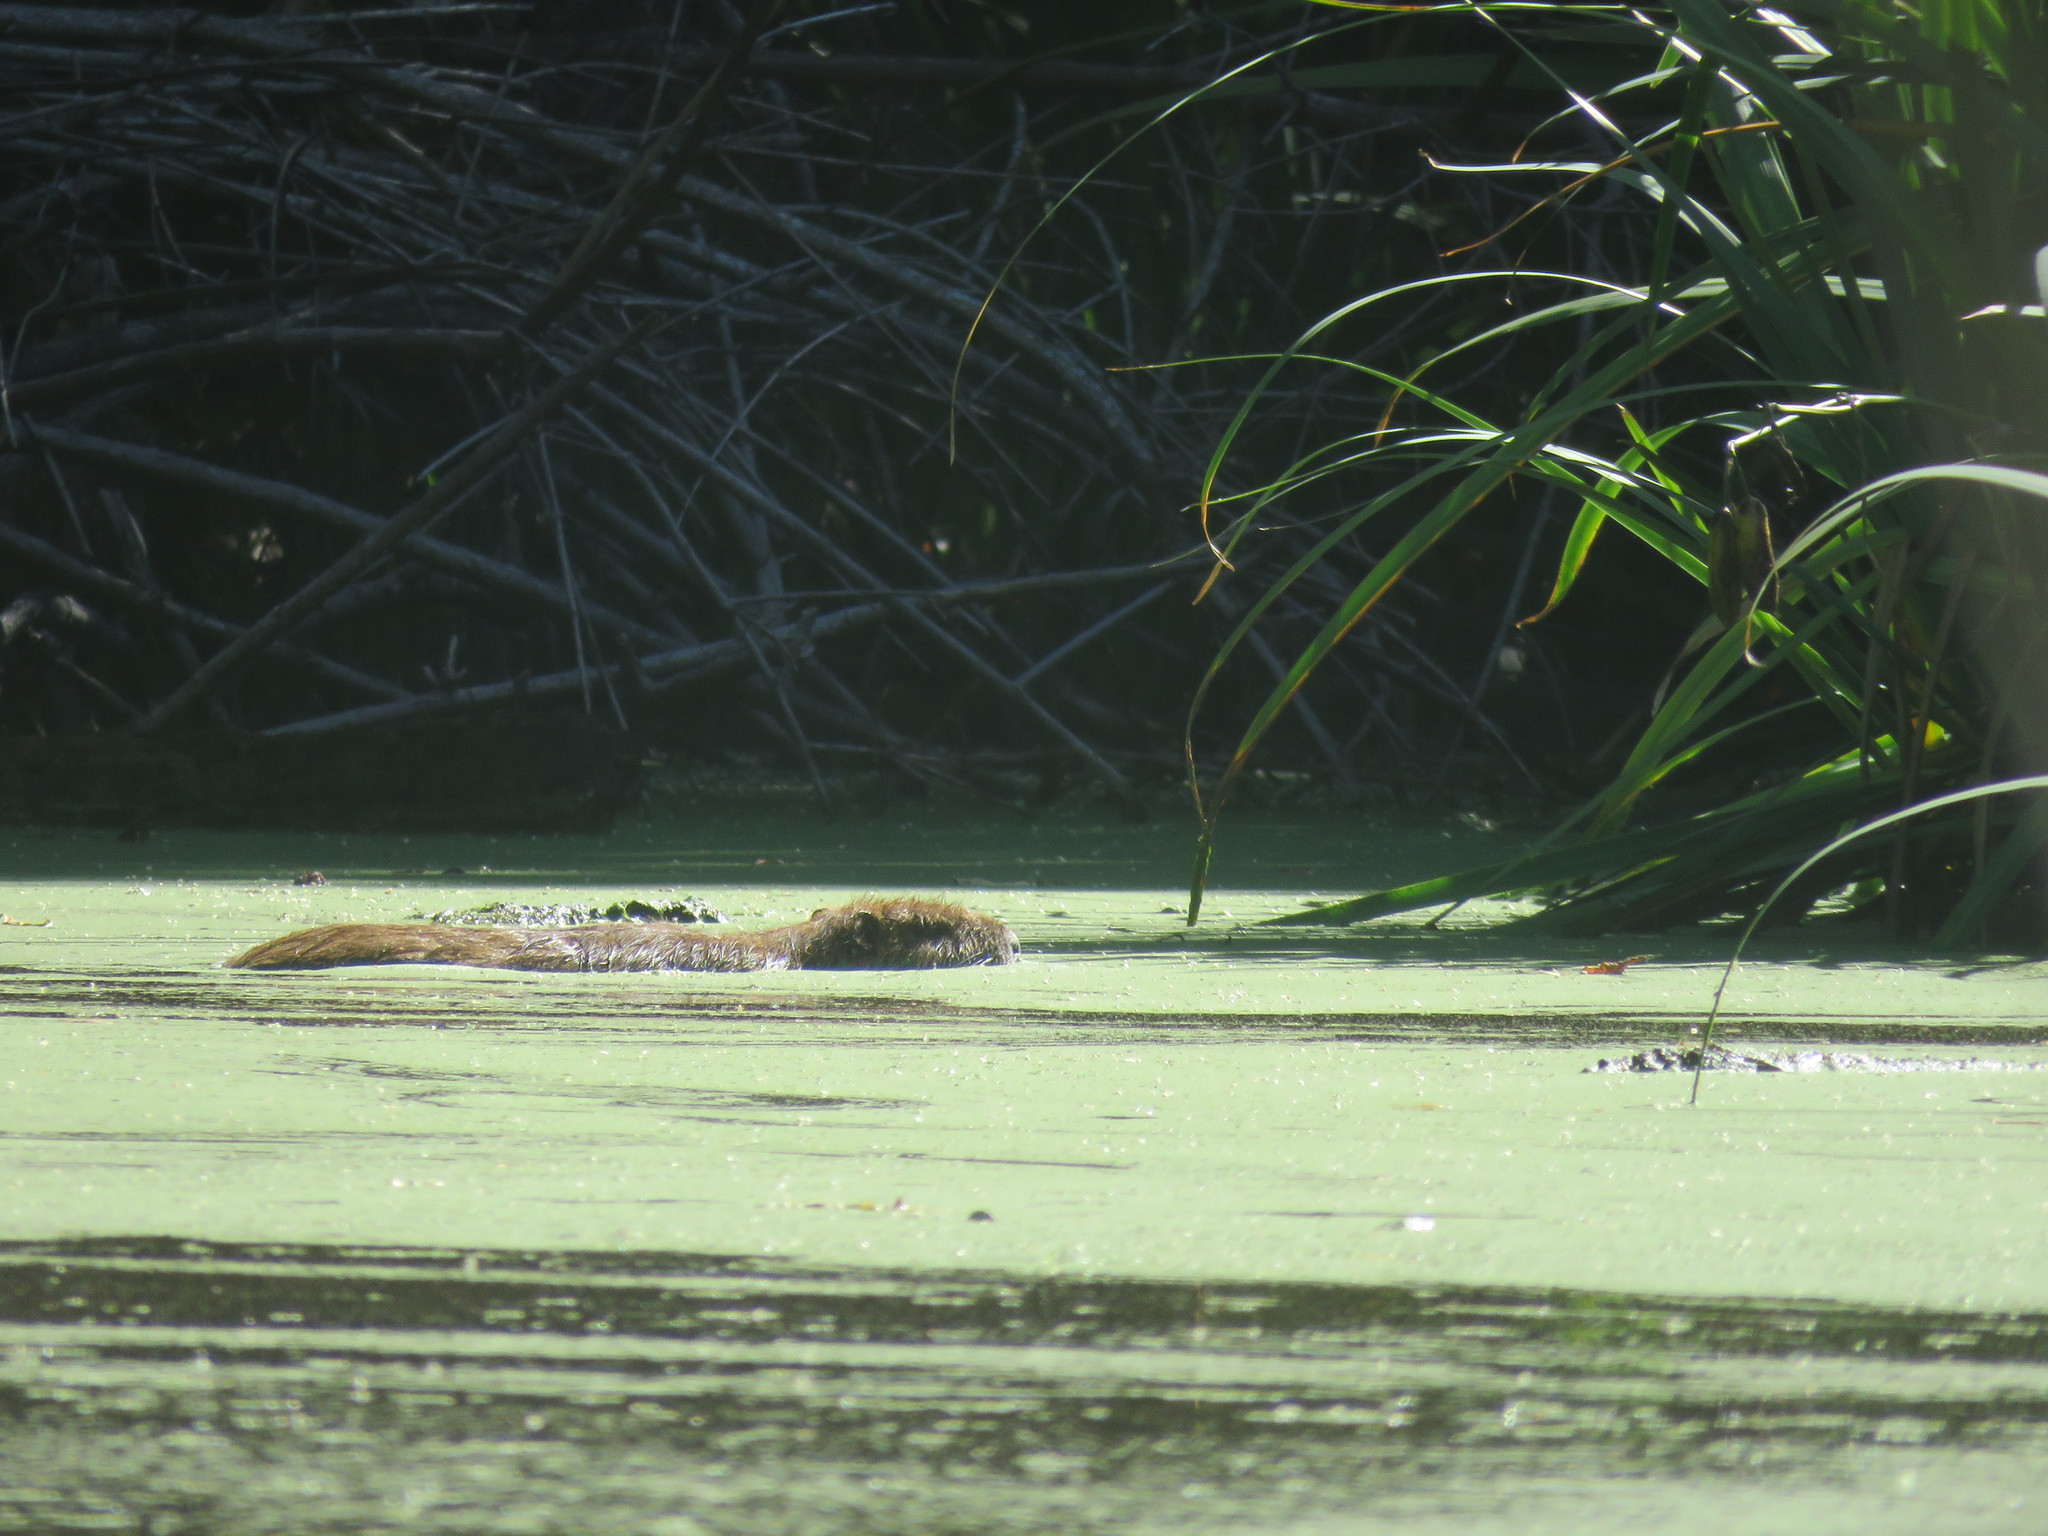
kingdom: Animalia
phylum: Chordata
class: Mammalia
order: Rodentia
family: Myocastoridae
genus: Myocastor
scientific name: Myocastor coypus
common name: Coypu
